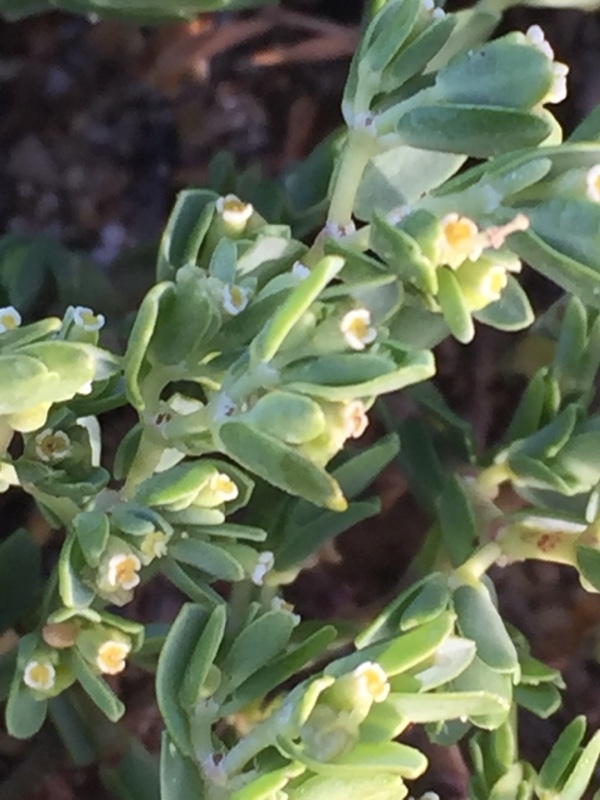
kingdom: Plantae
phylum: Tracheophyta
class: Magnoliopsida
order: Malpighiales
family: Euphorbiaceae
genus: Euphorbia
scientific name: Euphorbia mesembryanthemifolia
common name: Coastal beach sandmat
